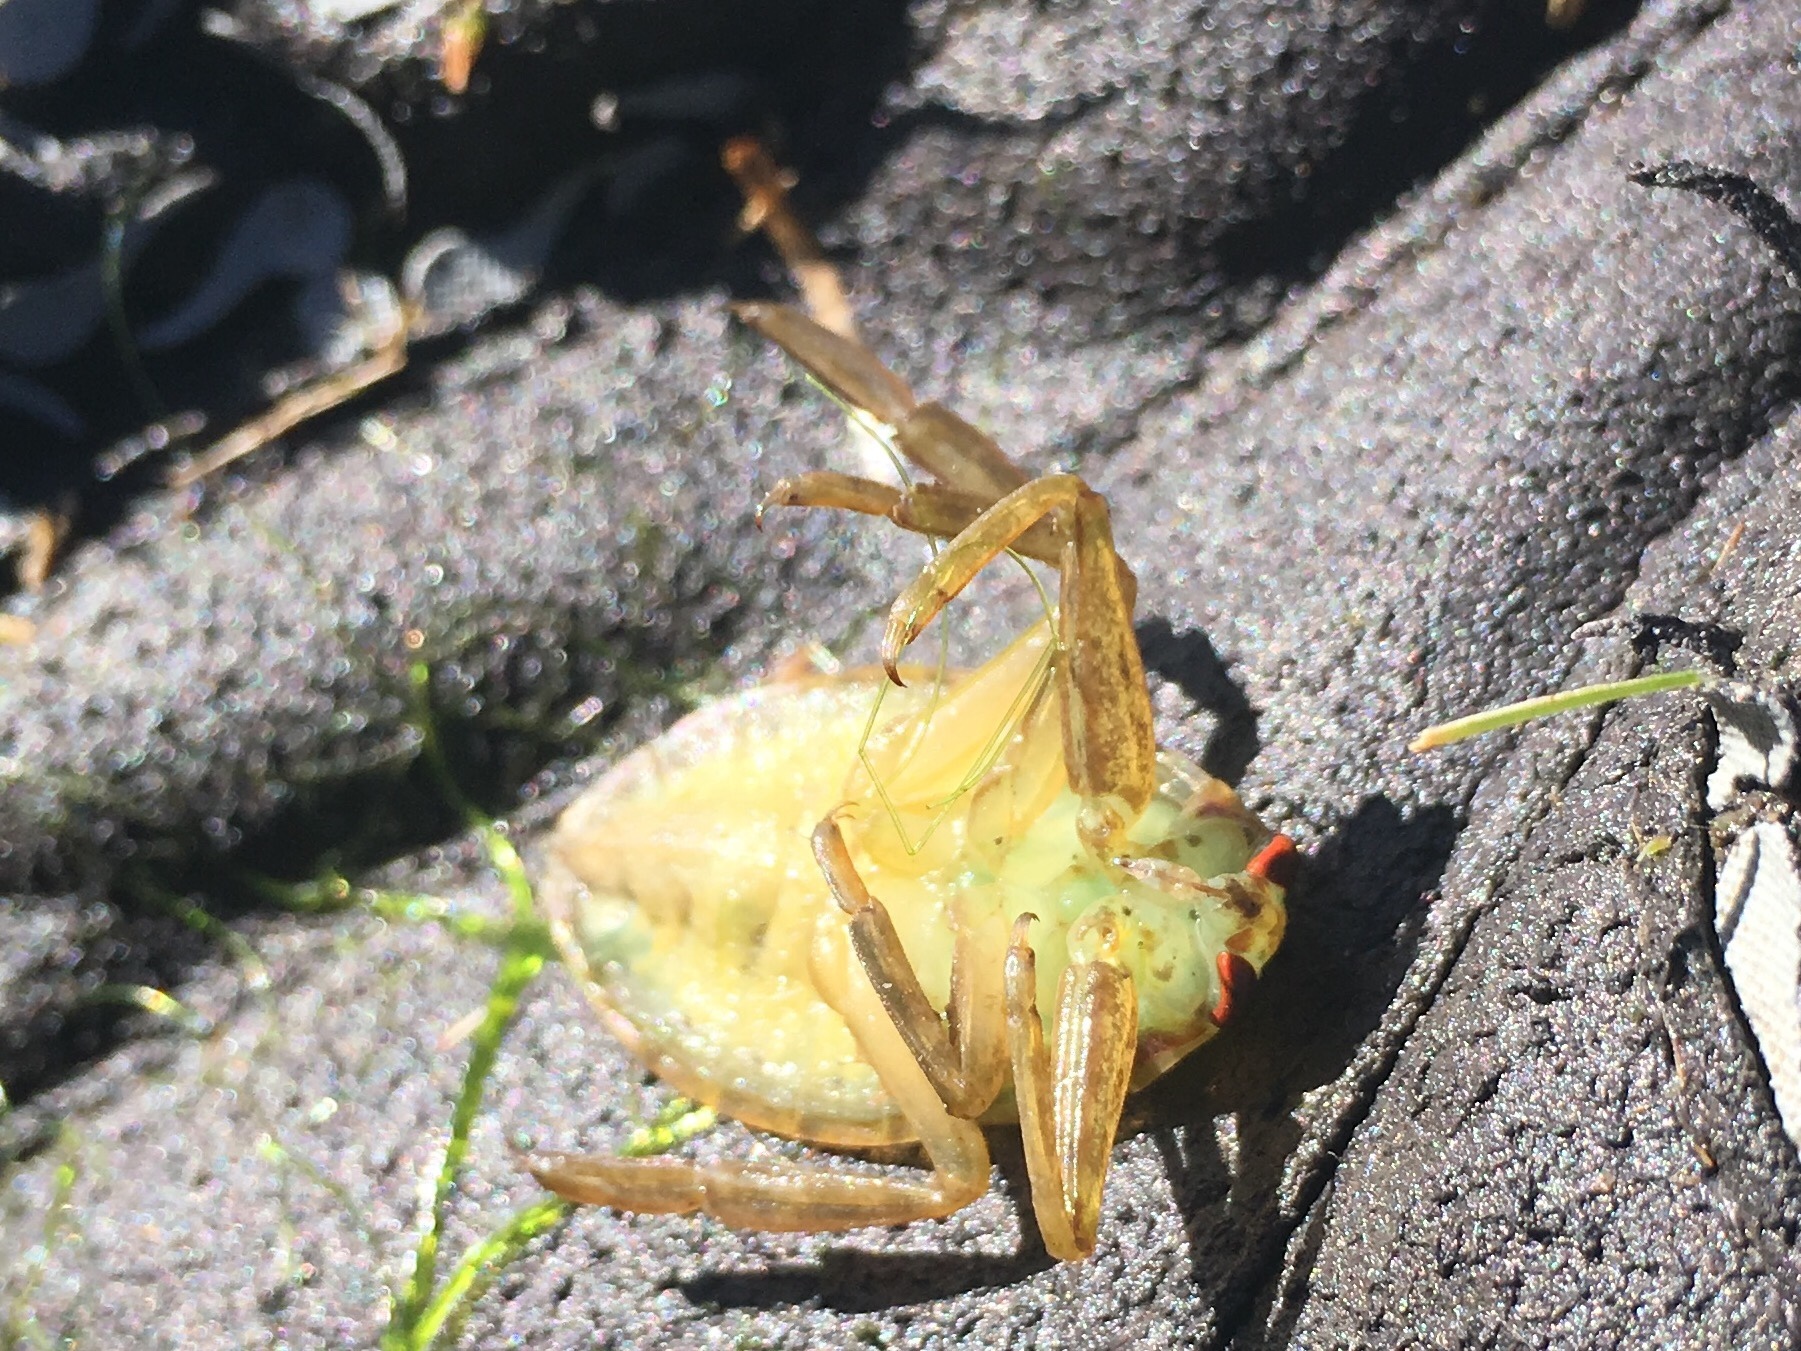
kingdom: Animalia
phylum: Arthropoda
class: Insecta
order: Hemiptera
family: Belostomatidae
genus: Lethocerus
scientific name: Lethocerus americanus
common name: Giant water bug
